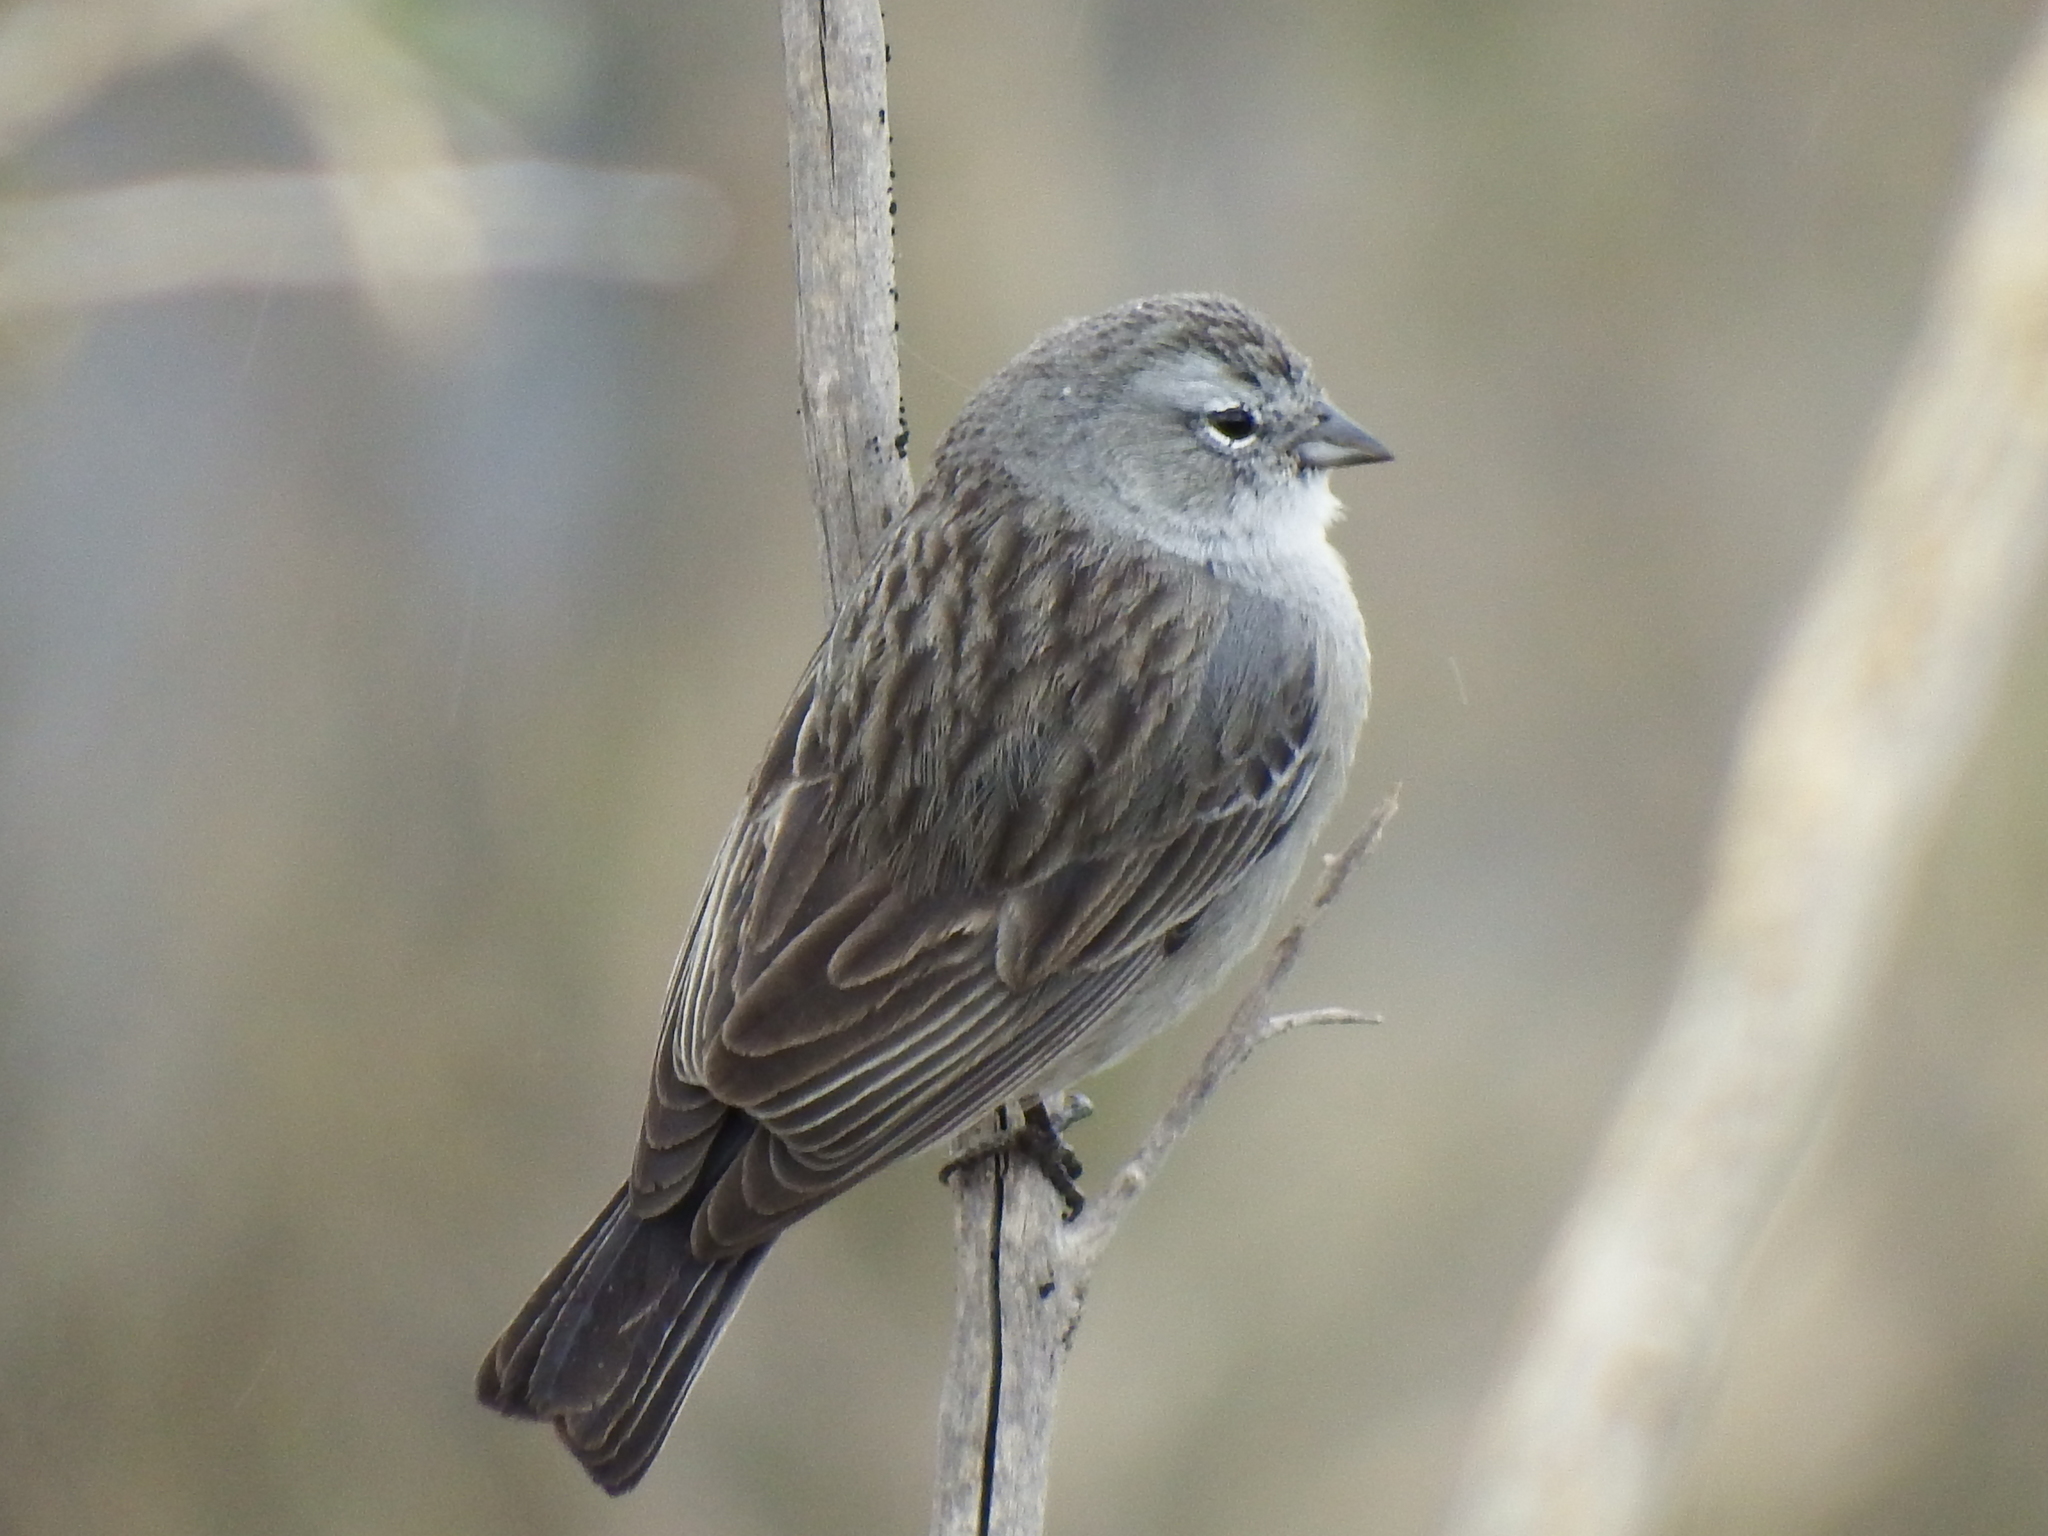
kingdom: Animalia
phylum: Chordata
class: Aves
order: Passeriformes
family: Thraupidae
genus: Geospizopsis
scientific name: Geospizopsis plebejus
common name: Ash-breasted sierra-finch
